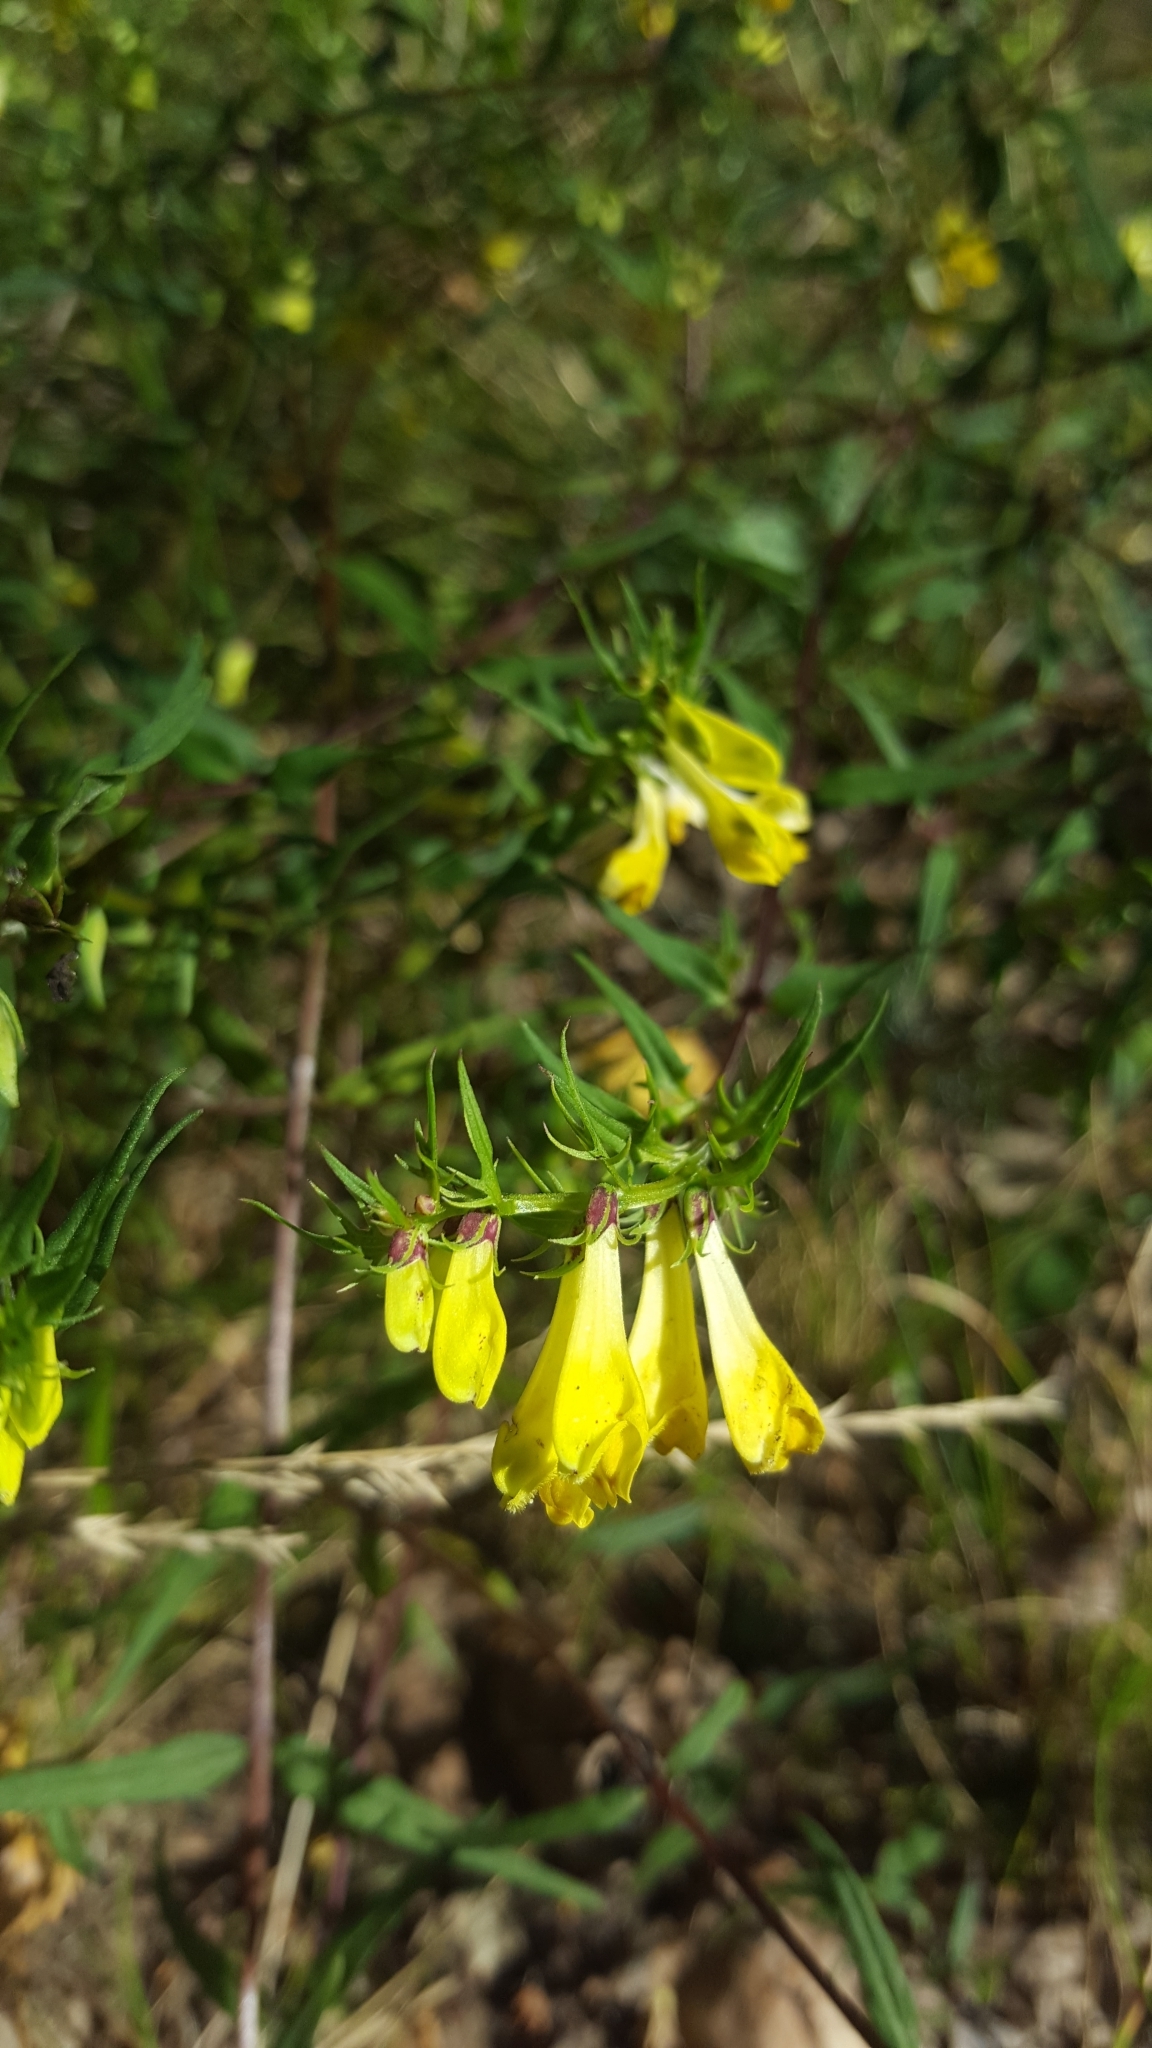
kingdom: Plantae
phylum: Tracheophyta
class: Magnoliopsida
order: Lamiales
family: Orobanchaceae
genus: Melampyrum
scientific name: Melampyrum pratense
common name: Common cow-wheat
